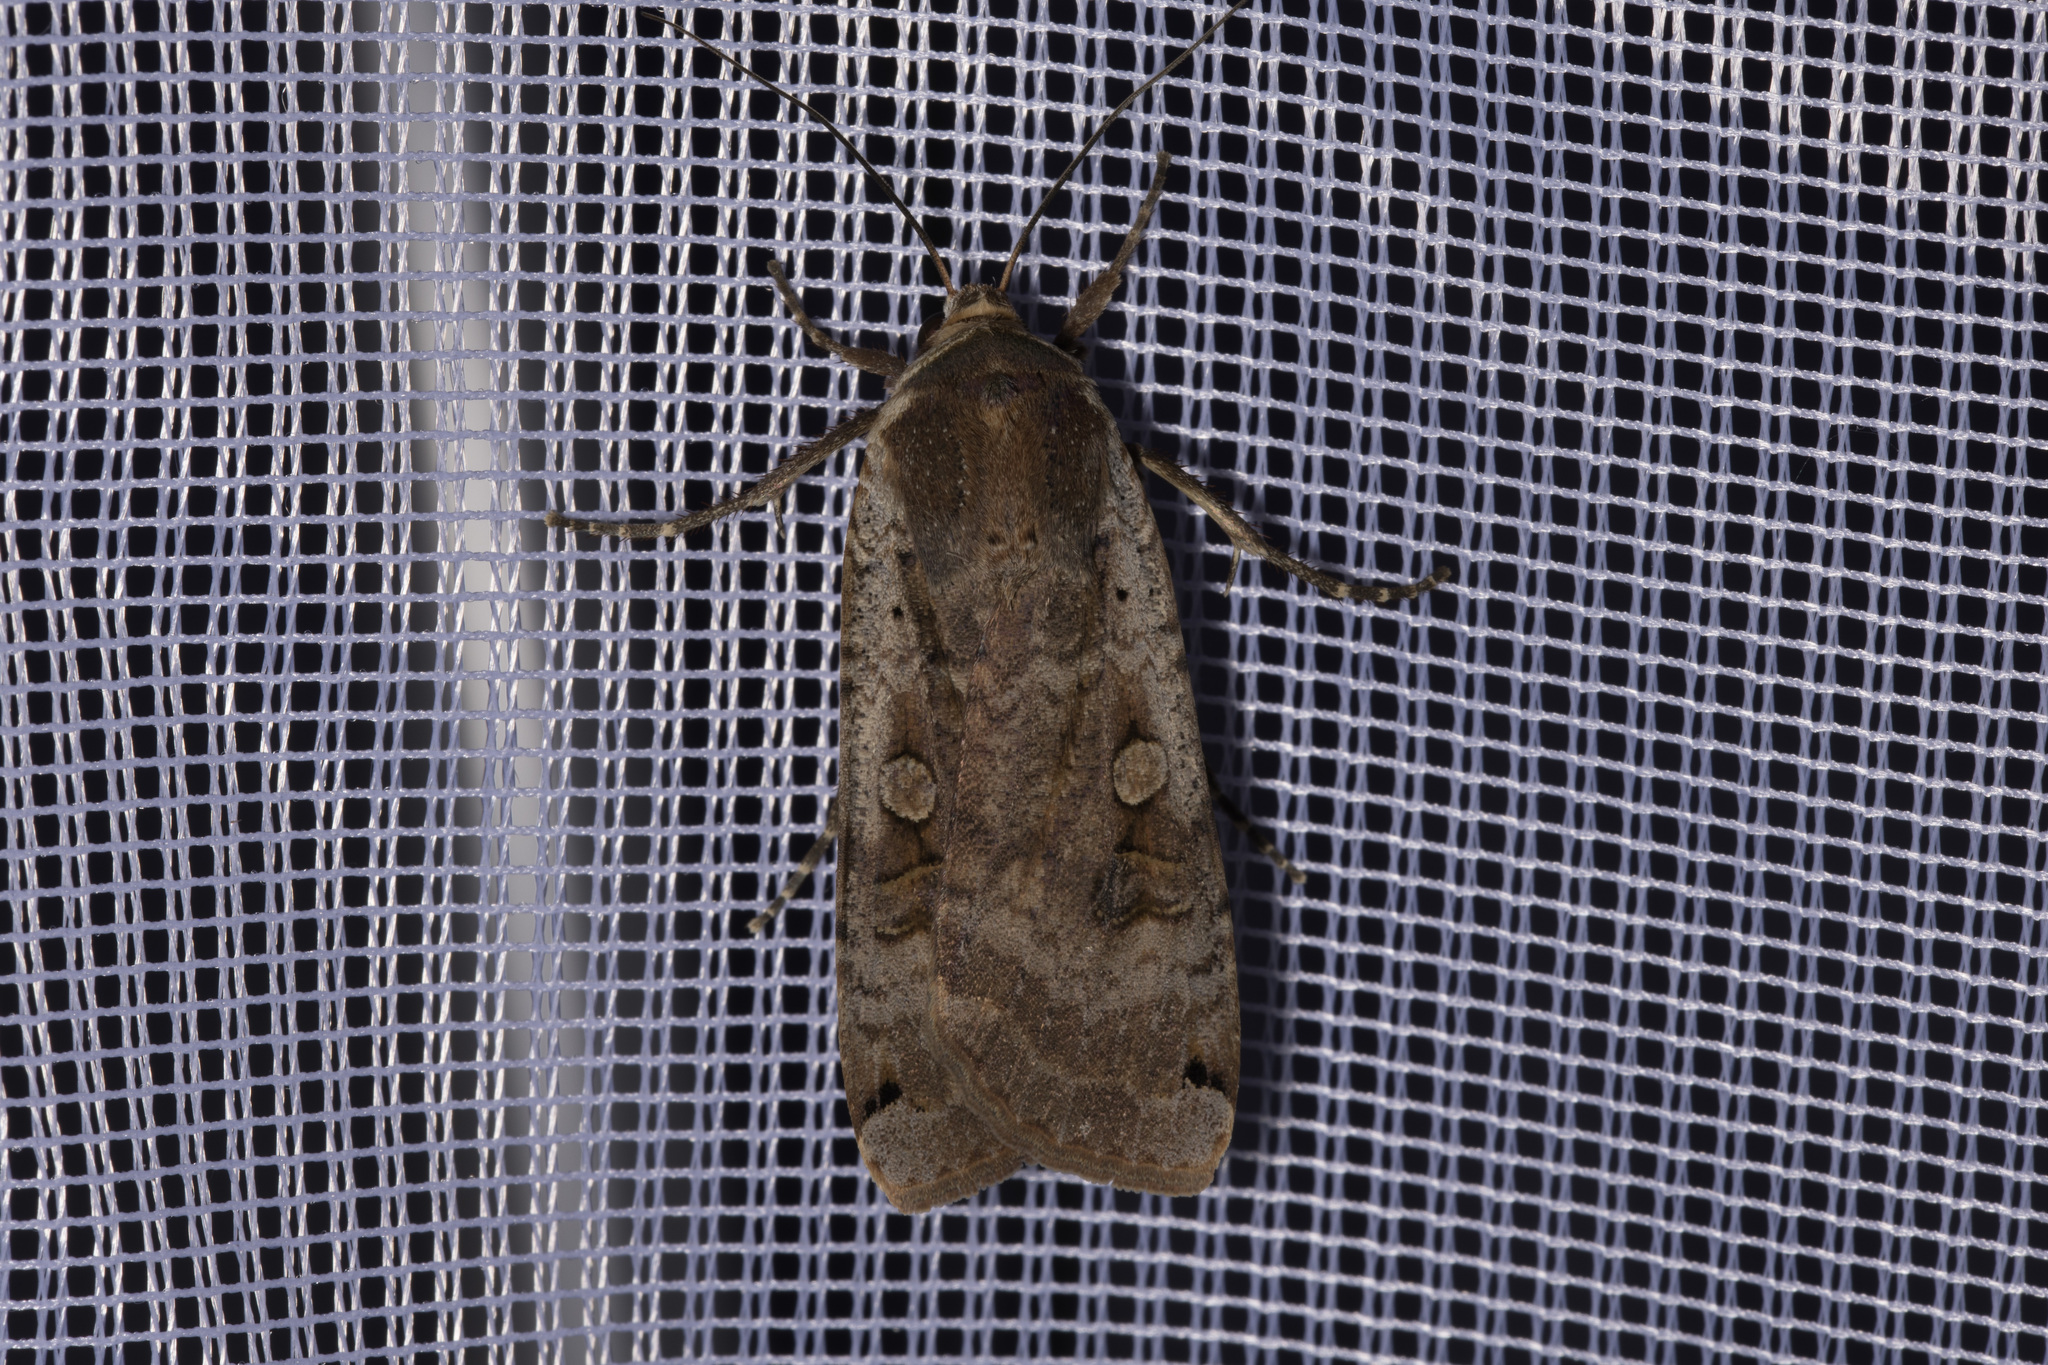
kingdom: Animalia
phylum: Arthropoda
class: Insecta
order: Lepidoptera
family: Noctuidae
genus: Noctua
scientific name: Noctua pronuba
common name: Large yellow underwing
